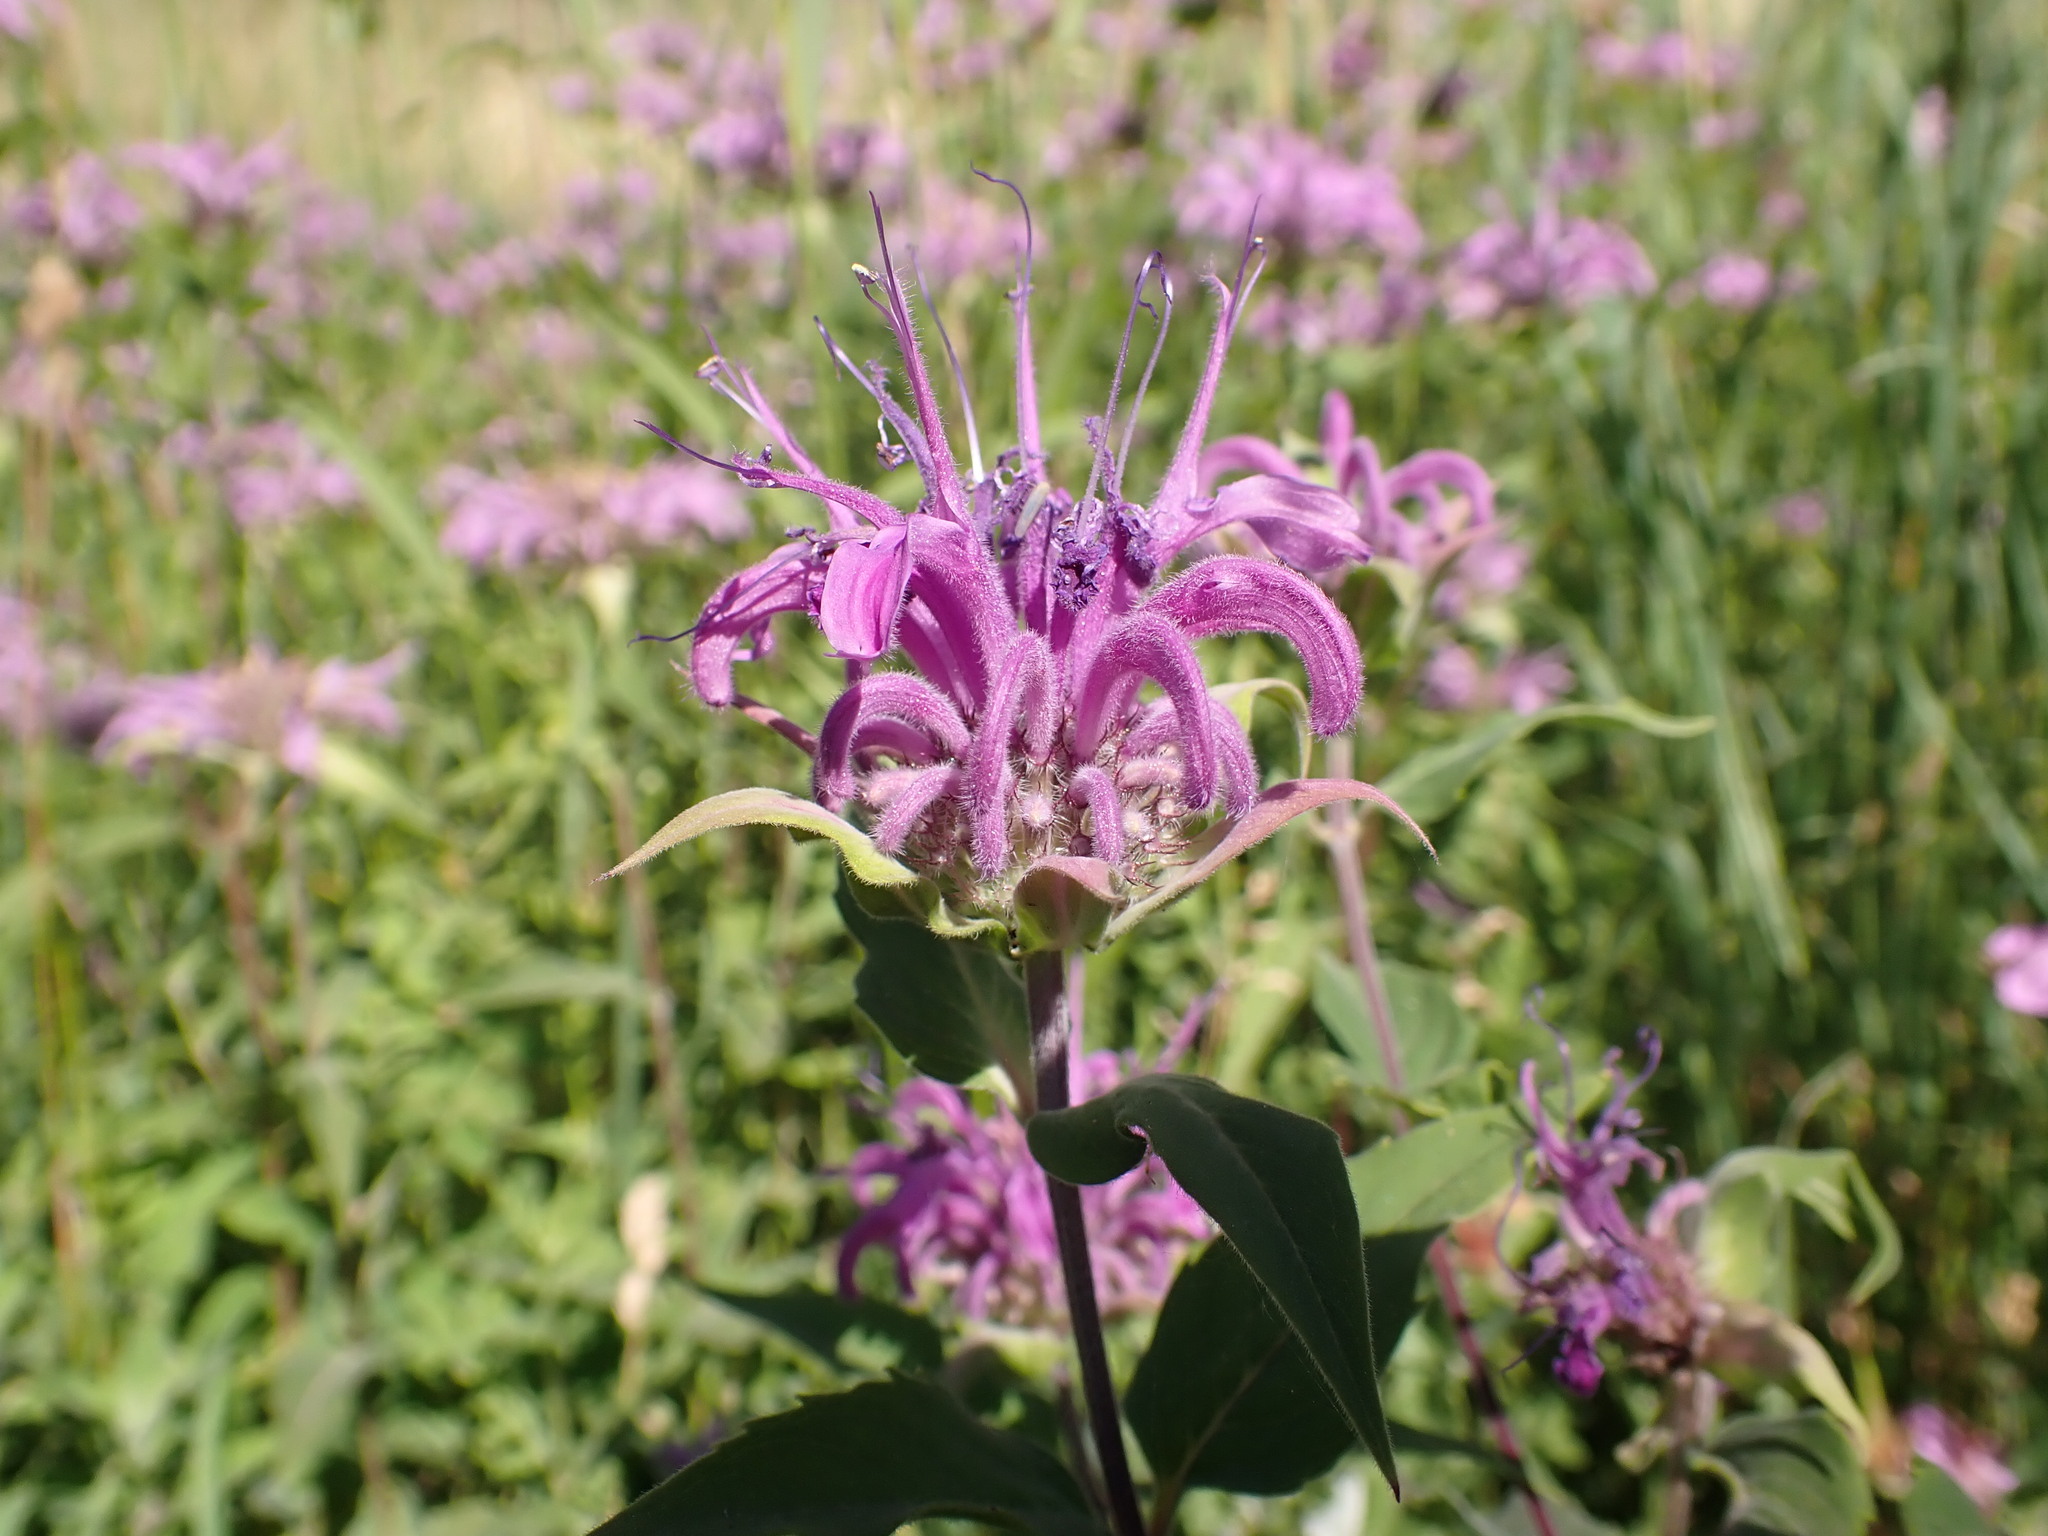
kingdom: Plantae
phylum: Tracheophyta
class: Magnoliopsida
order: Lamiales
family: Lamiaceae
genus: Monarda
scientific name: Monarda fistulosa
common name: Purple beebalm
